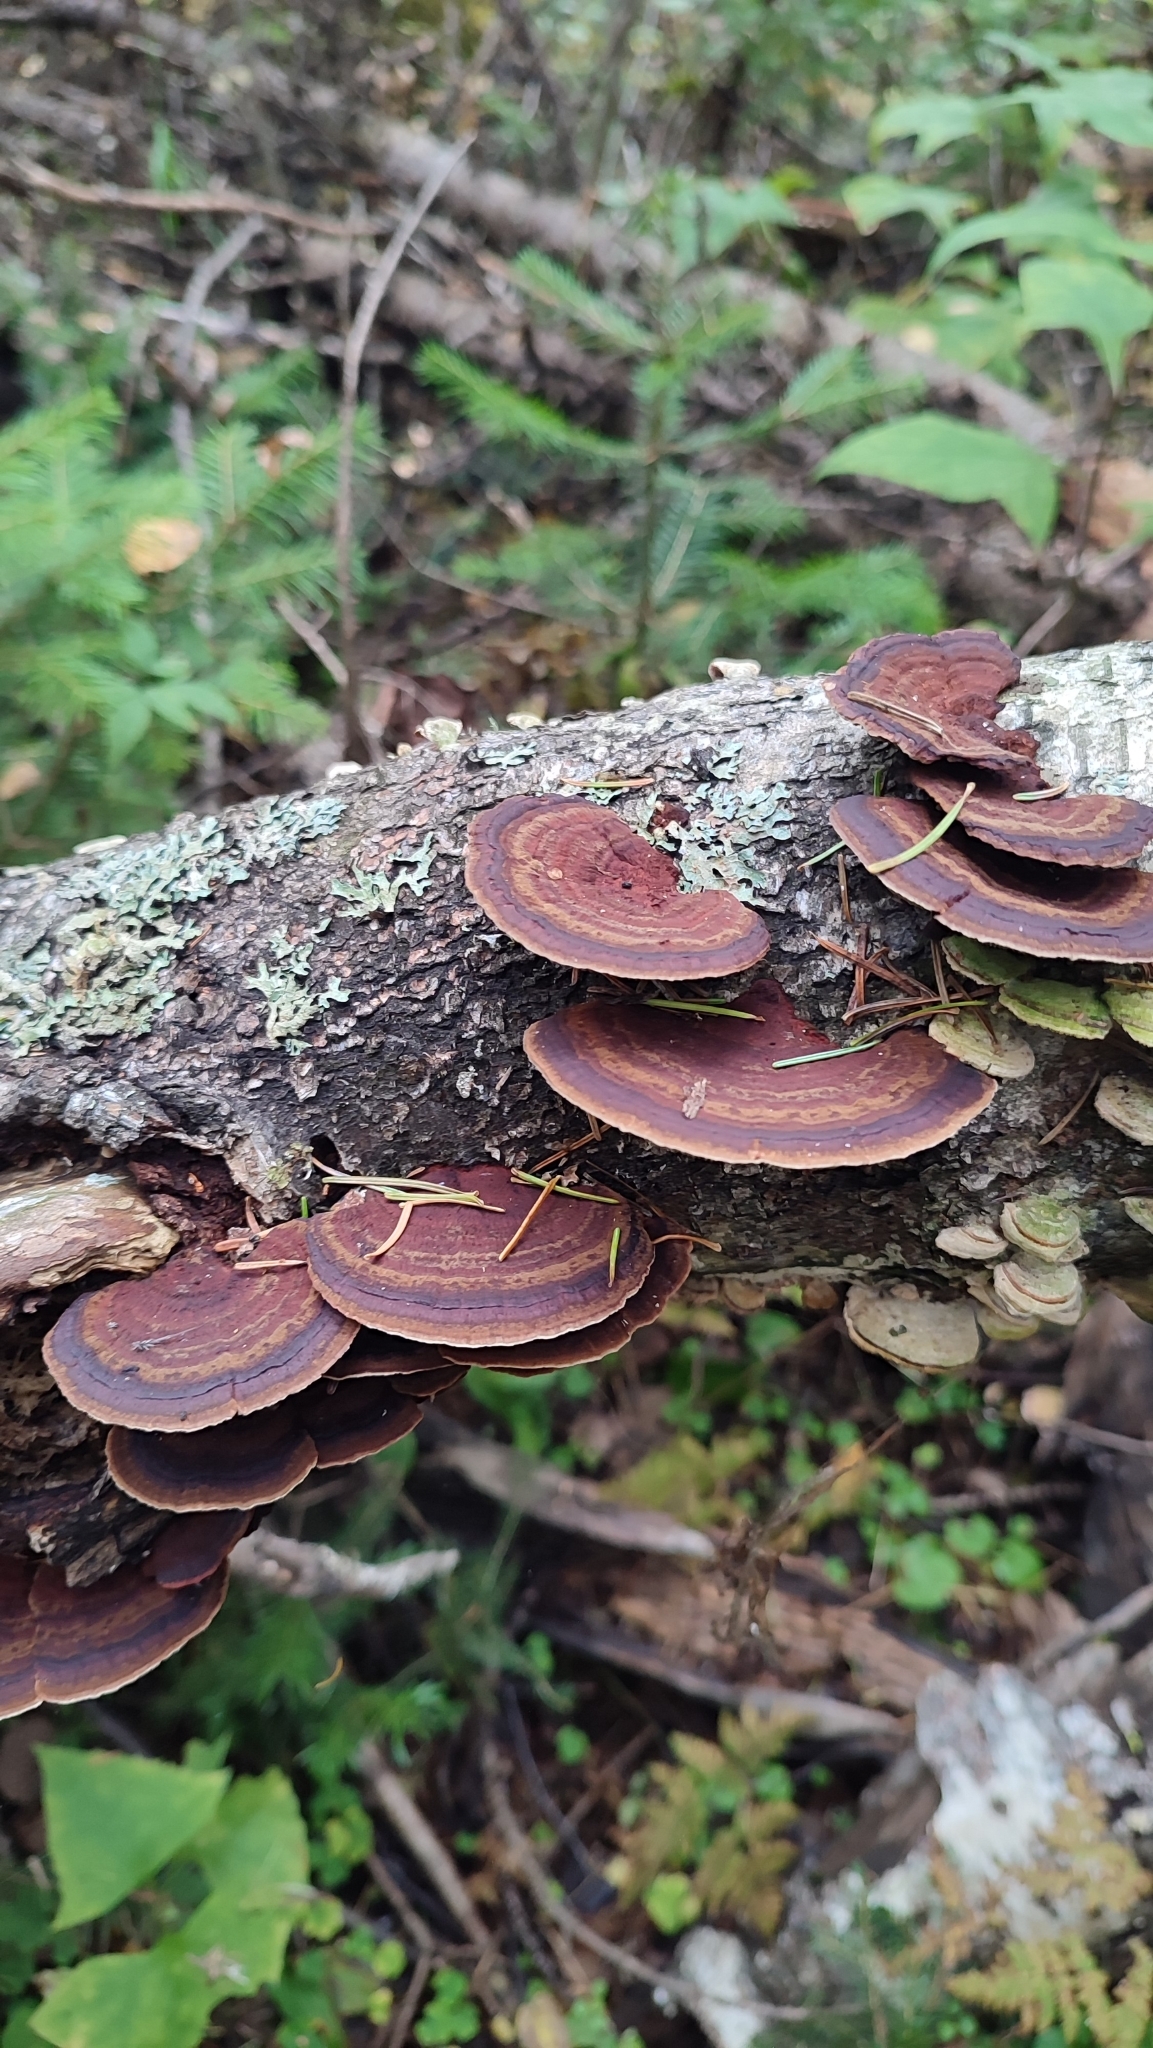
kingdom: Fungi
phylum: Basidiomycota
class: Agaricomycetes
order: Polyporales
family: Polyporaceae
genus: Daedaleopsis
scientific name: Daedaleopsis confragosa
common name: Blushing bracket
